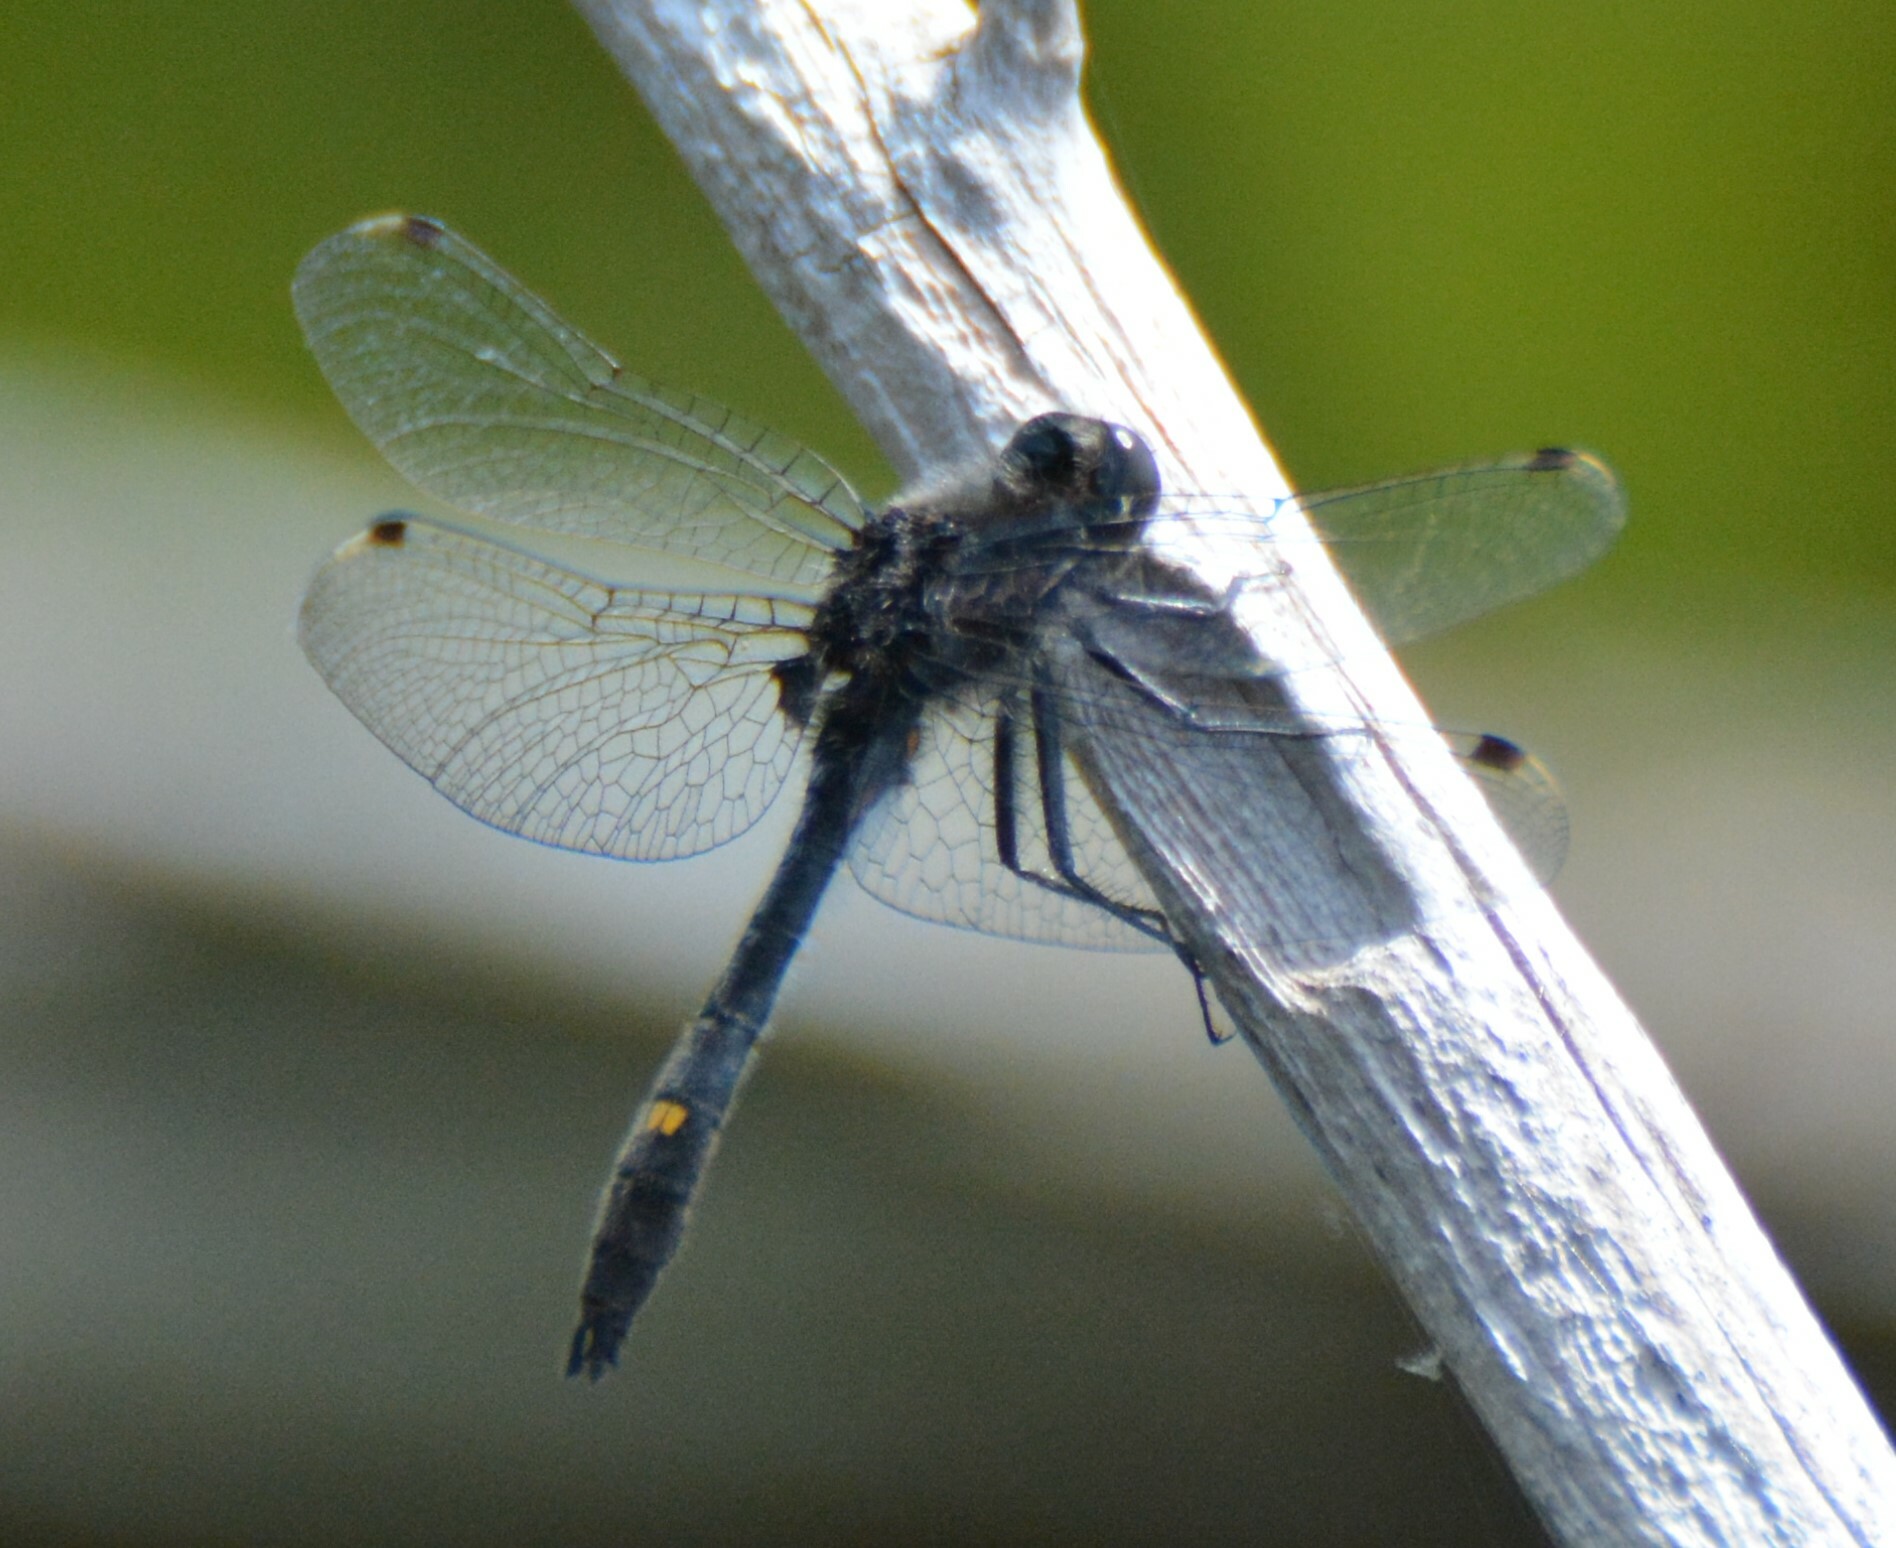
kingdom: Animalia
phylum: Arthropoda
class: Insecta
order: Odonata
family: Libellulidae
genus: Leucorrhinia
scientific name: Leucorrhinia intacta
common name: Dot-tailed whiteface
